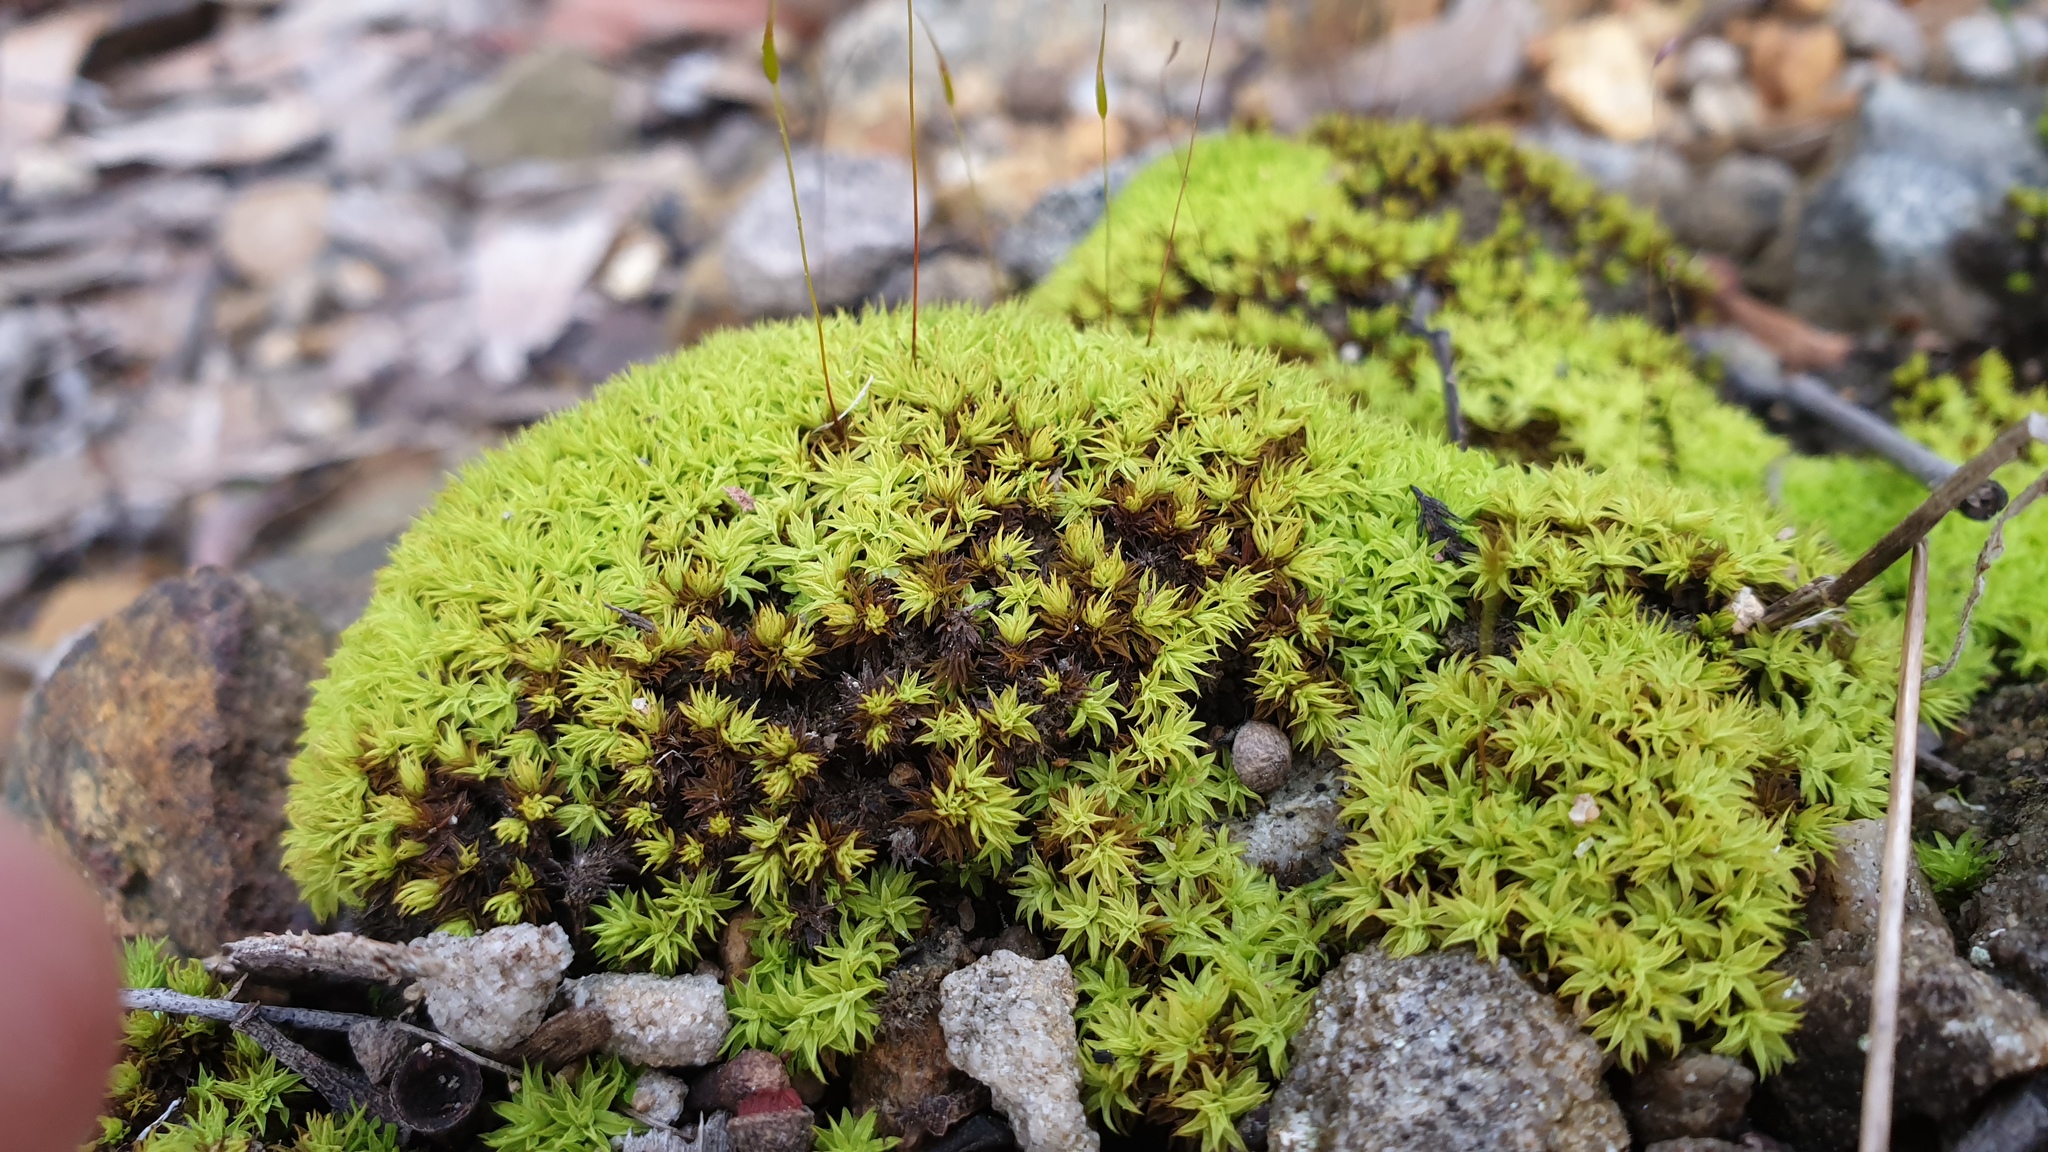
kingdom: Plantae
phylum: Bryophyta
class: Bryopsida
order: Pottiales
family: Pottiaceae
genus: Barbula
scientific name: Barbula calycina
